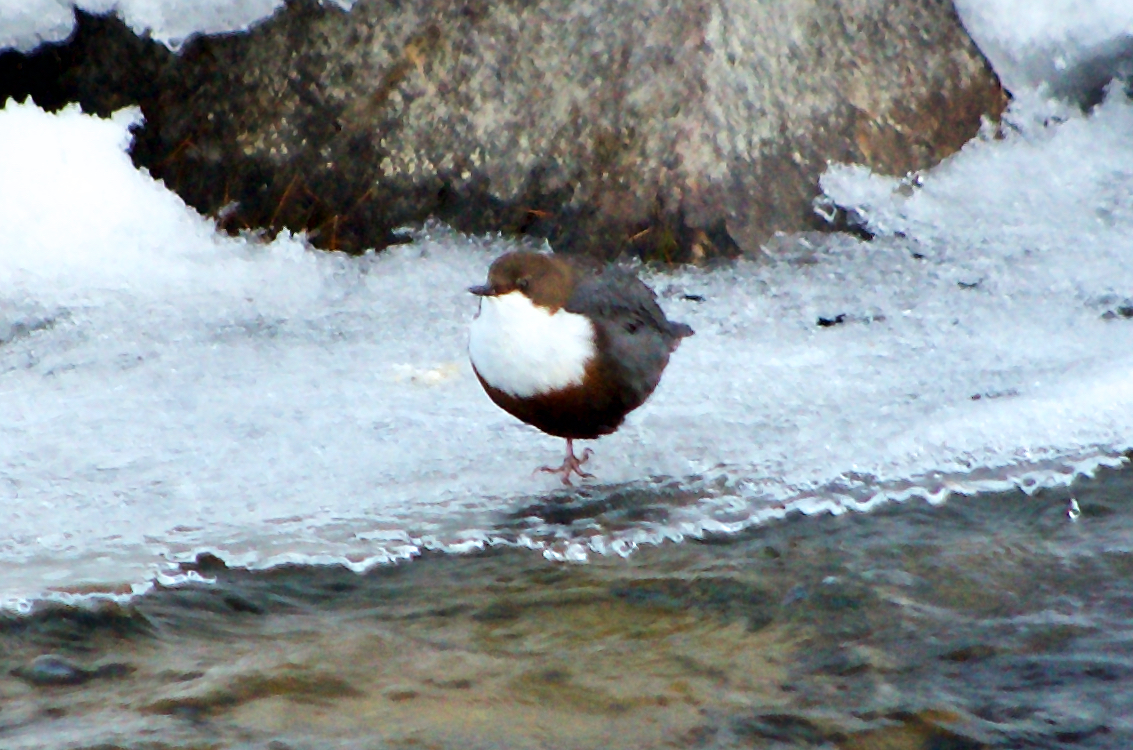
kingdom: Animalia
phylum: Chordata
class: Aves
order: Passeriformes
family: Cinclidae
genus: Cinclus
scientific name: Cinclus cinclus
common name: White-throated dipper
